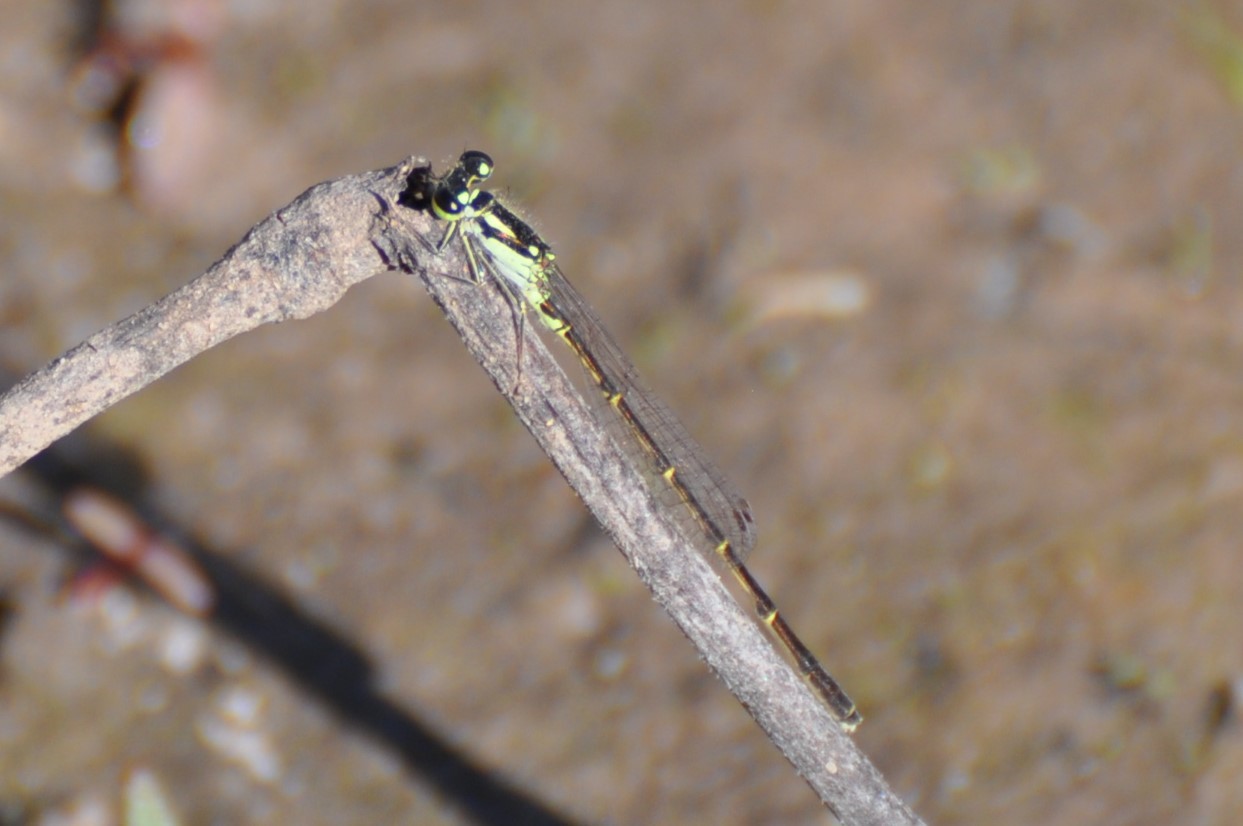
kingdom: Animalia
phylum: Arthropoda
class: Insecta
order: Odonata
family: Coenagrionidae
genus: Ischnura
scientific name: Ischnura posita
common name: Fragile forktail
